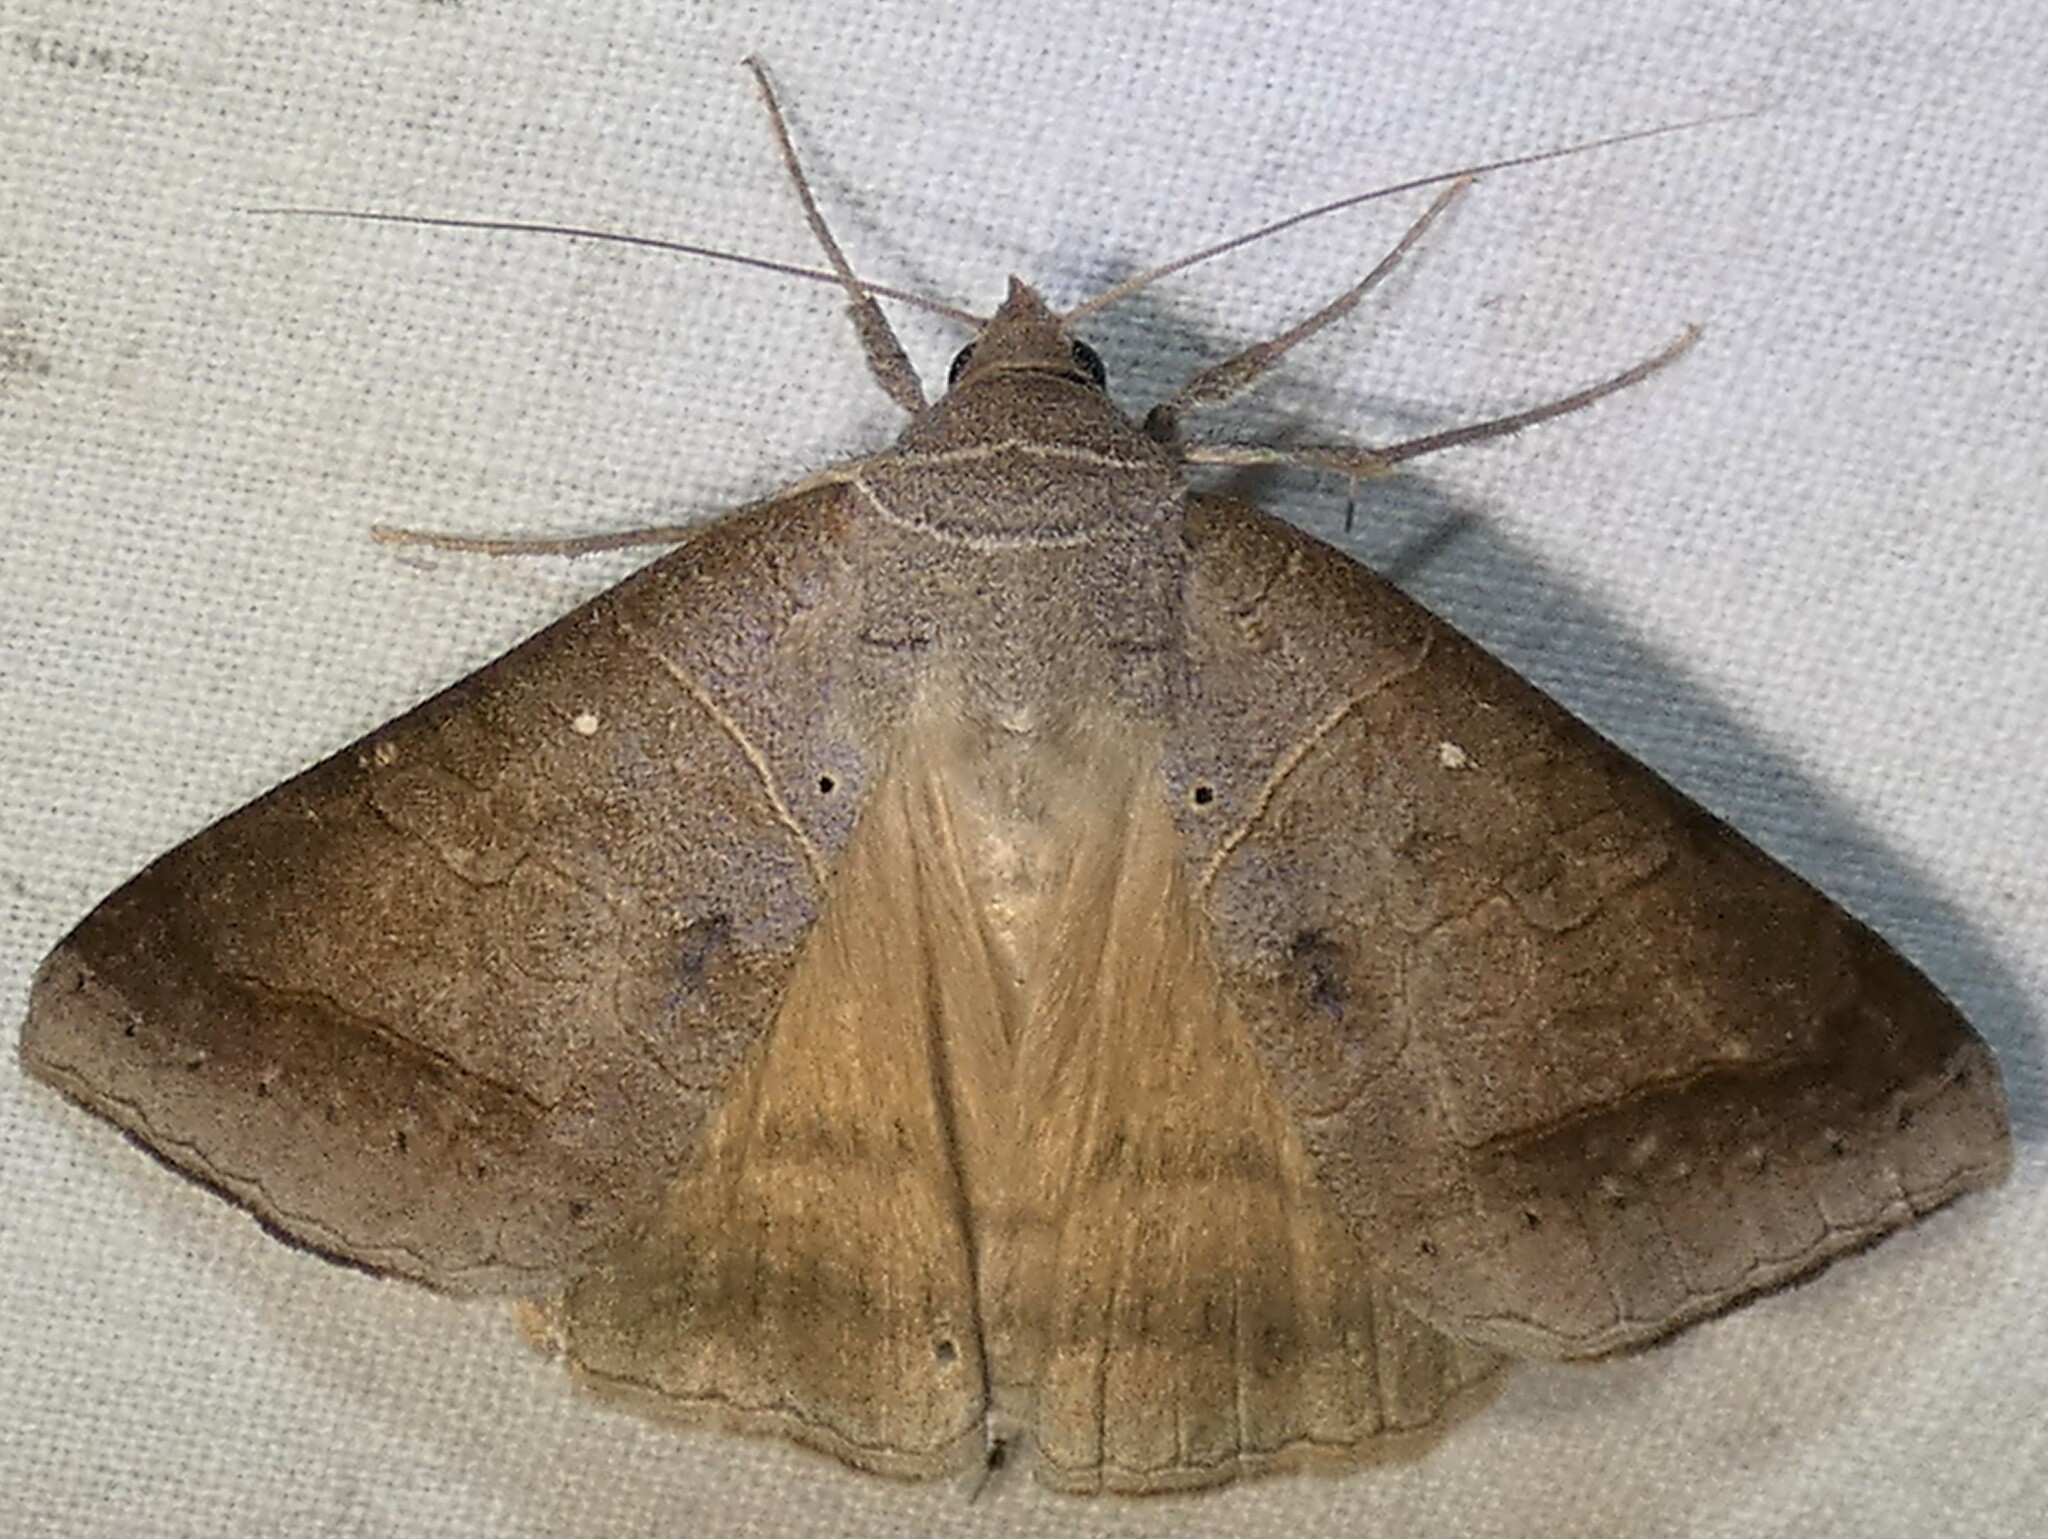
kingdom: Animalia
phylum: Arthropoda
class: Insecta
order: Lepidoptera
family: Erebidae
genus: Mocis
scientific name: Mocis marcida
